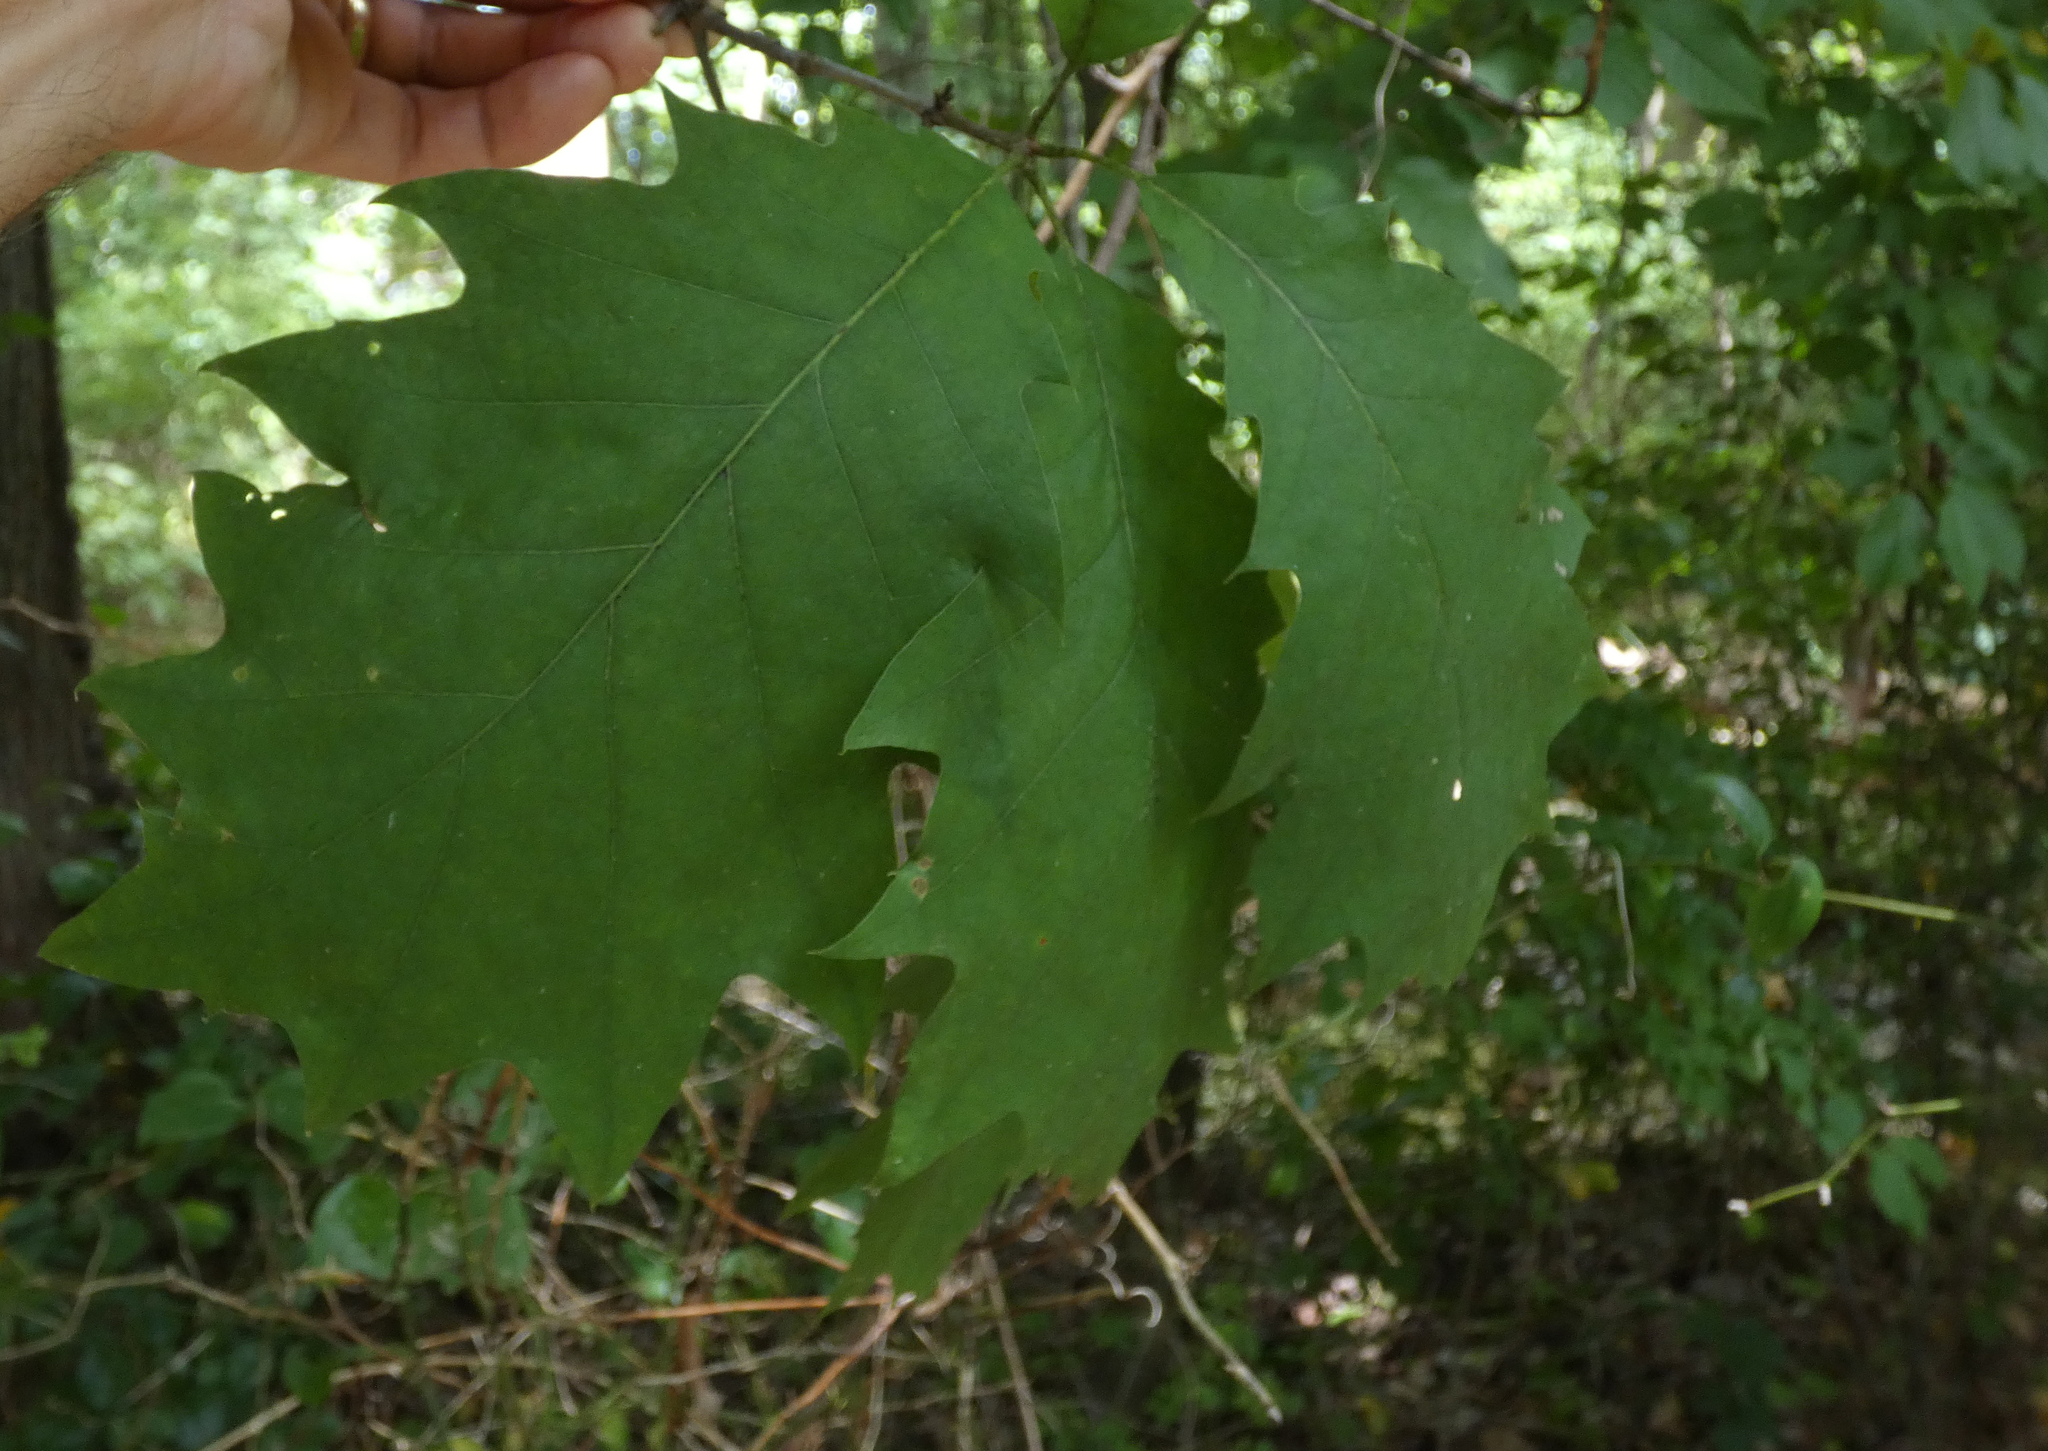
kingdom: Plantae
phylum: Tracheophyta
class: Magnoliopsida
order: Fagales
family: Fagaceae
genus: Quercus
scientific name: Quercus rubra
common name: Red oak
